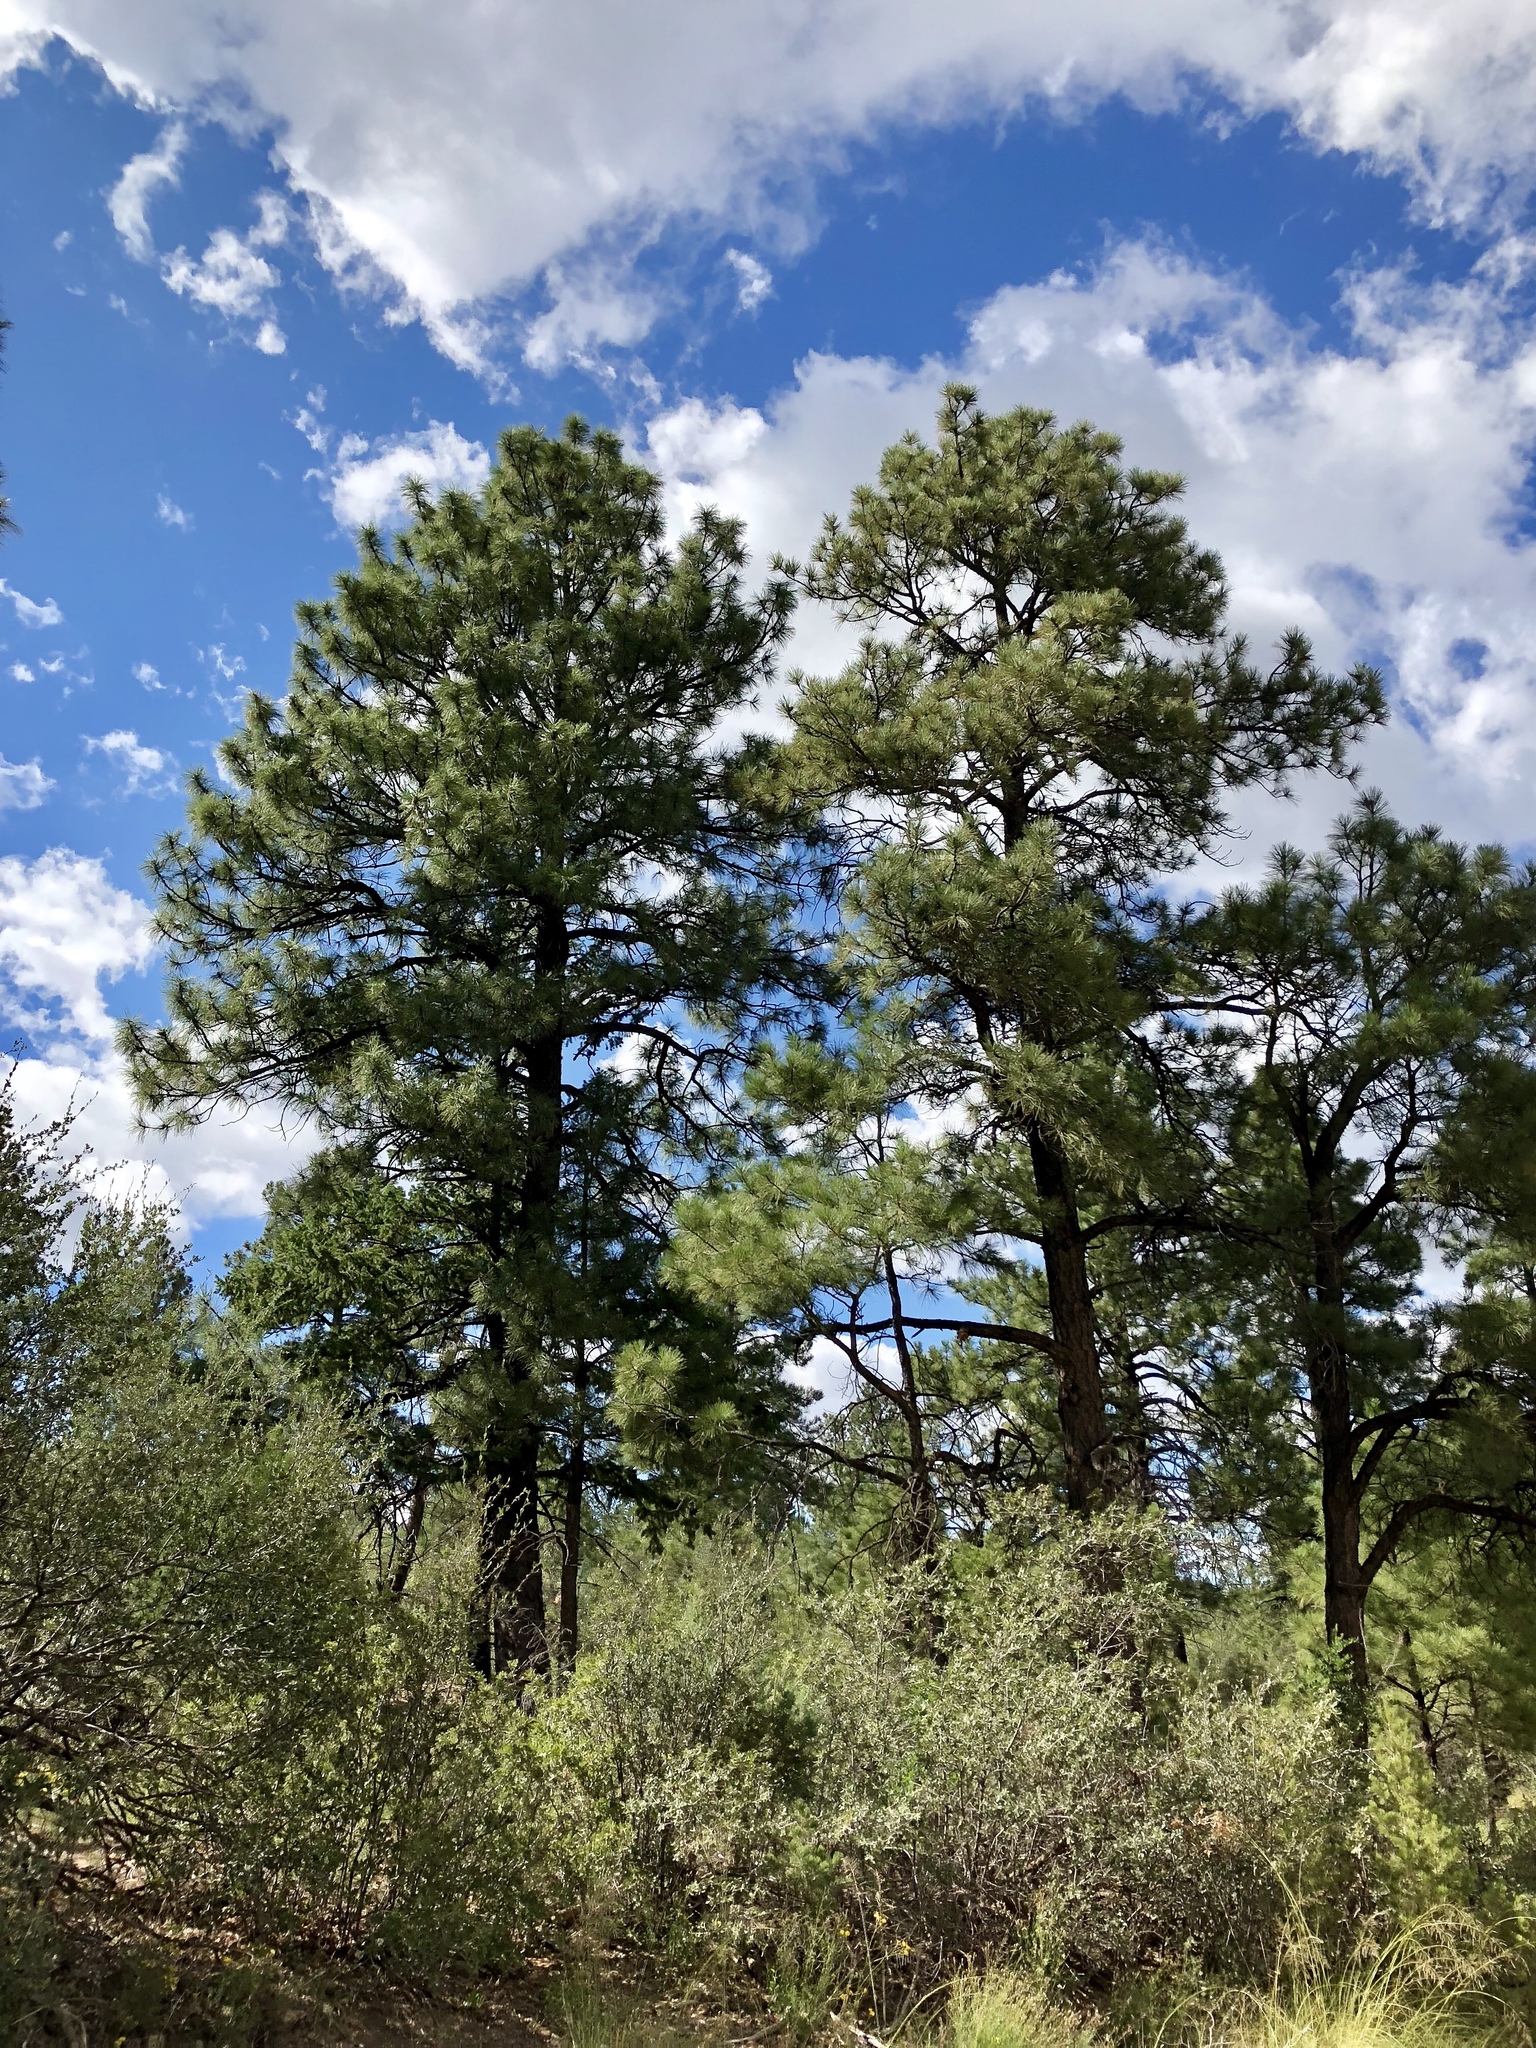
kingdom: Plantae
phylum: Tracheophyta
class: Pinopsida
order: Pinales
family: Pinaceae
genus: Pinus
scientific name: Pinus ponderosa
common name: Western yellow-pine
